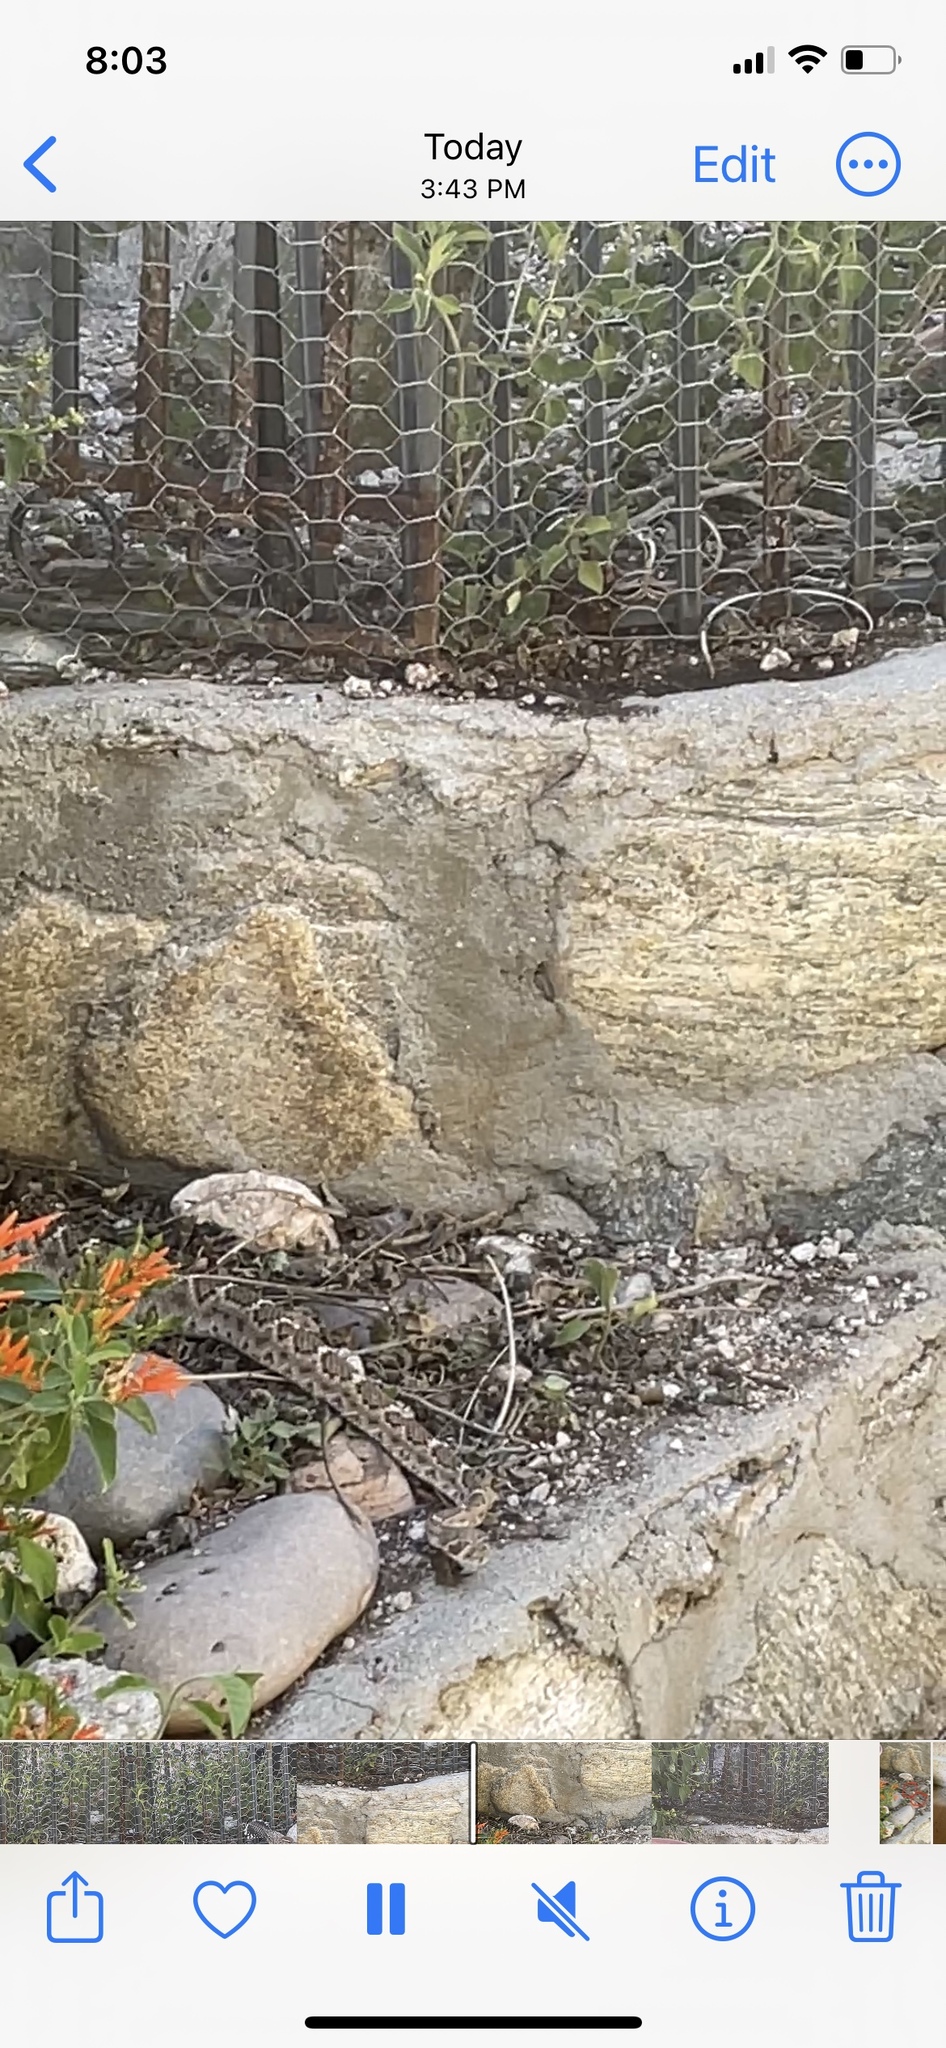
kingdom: Animalia
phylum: Chordata
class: Squamata
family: Viperidae
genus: Crotalus
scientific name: Crotalus atrox
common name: Western diamond-backed rattlesnake
